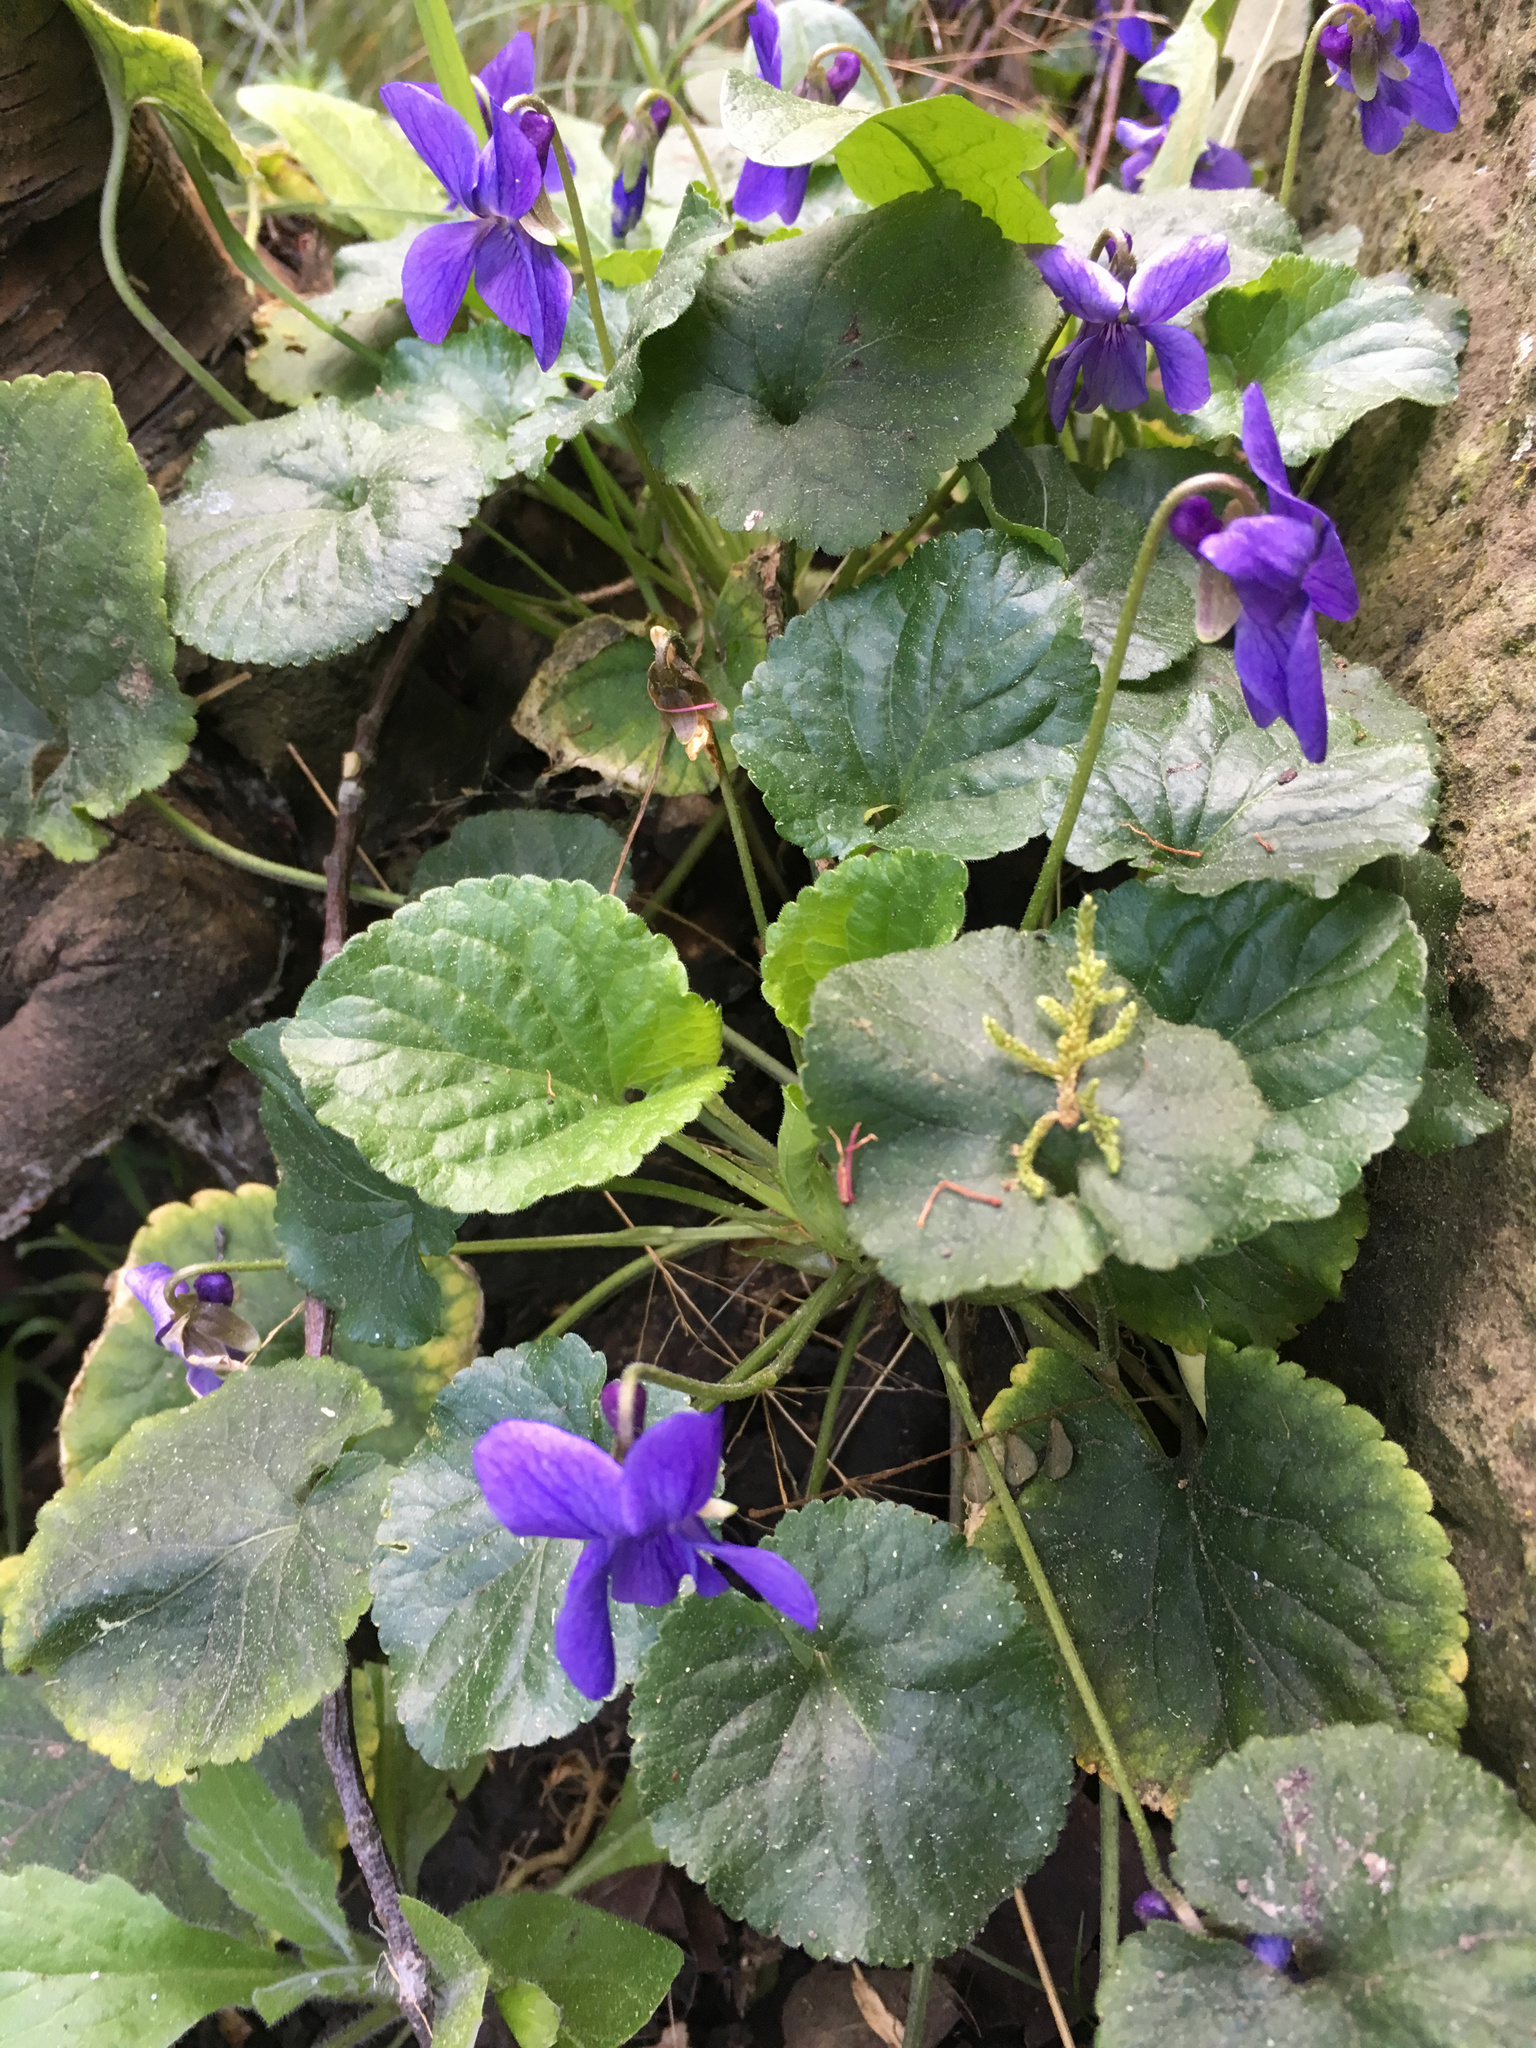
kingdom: Plantae
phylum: Tracheophyta
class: Magnoliopsida
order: Malpighiales
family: Violaceae
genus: Viola
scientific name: Viola odorata
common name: Sweet violet
